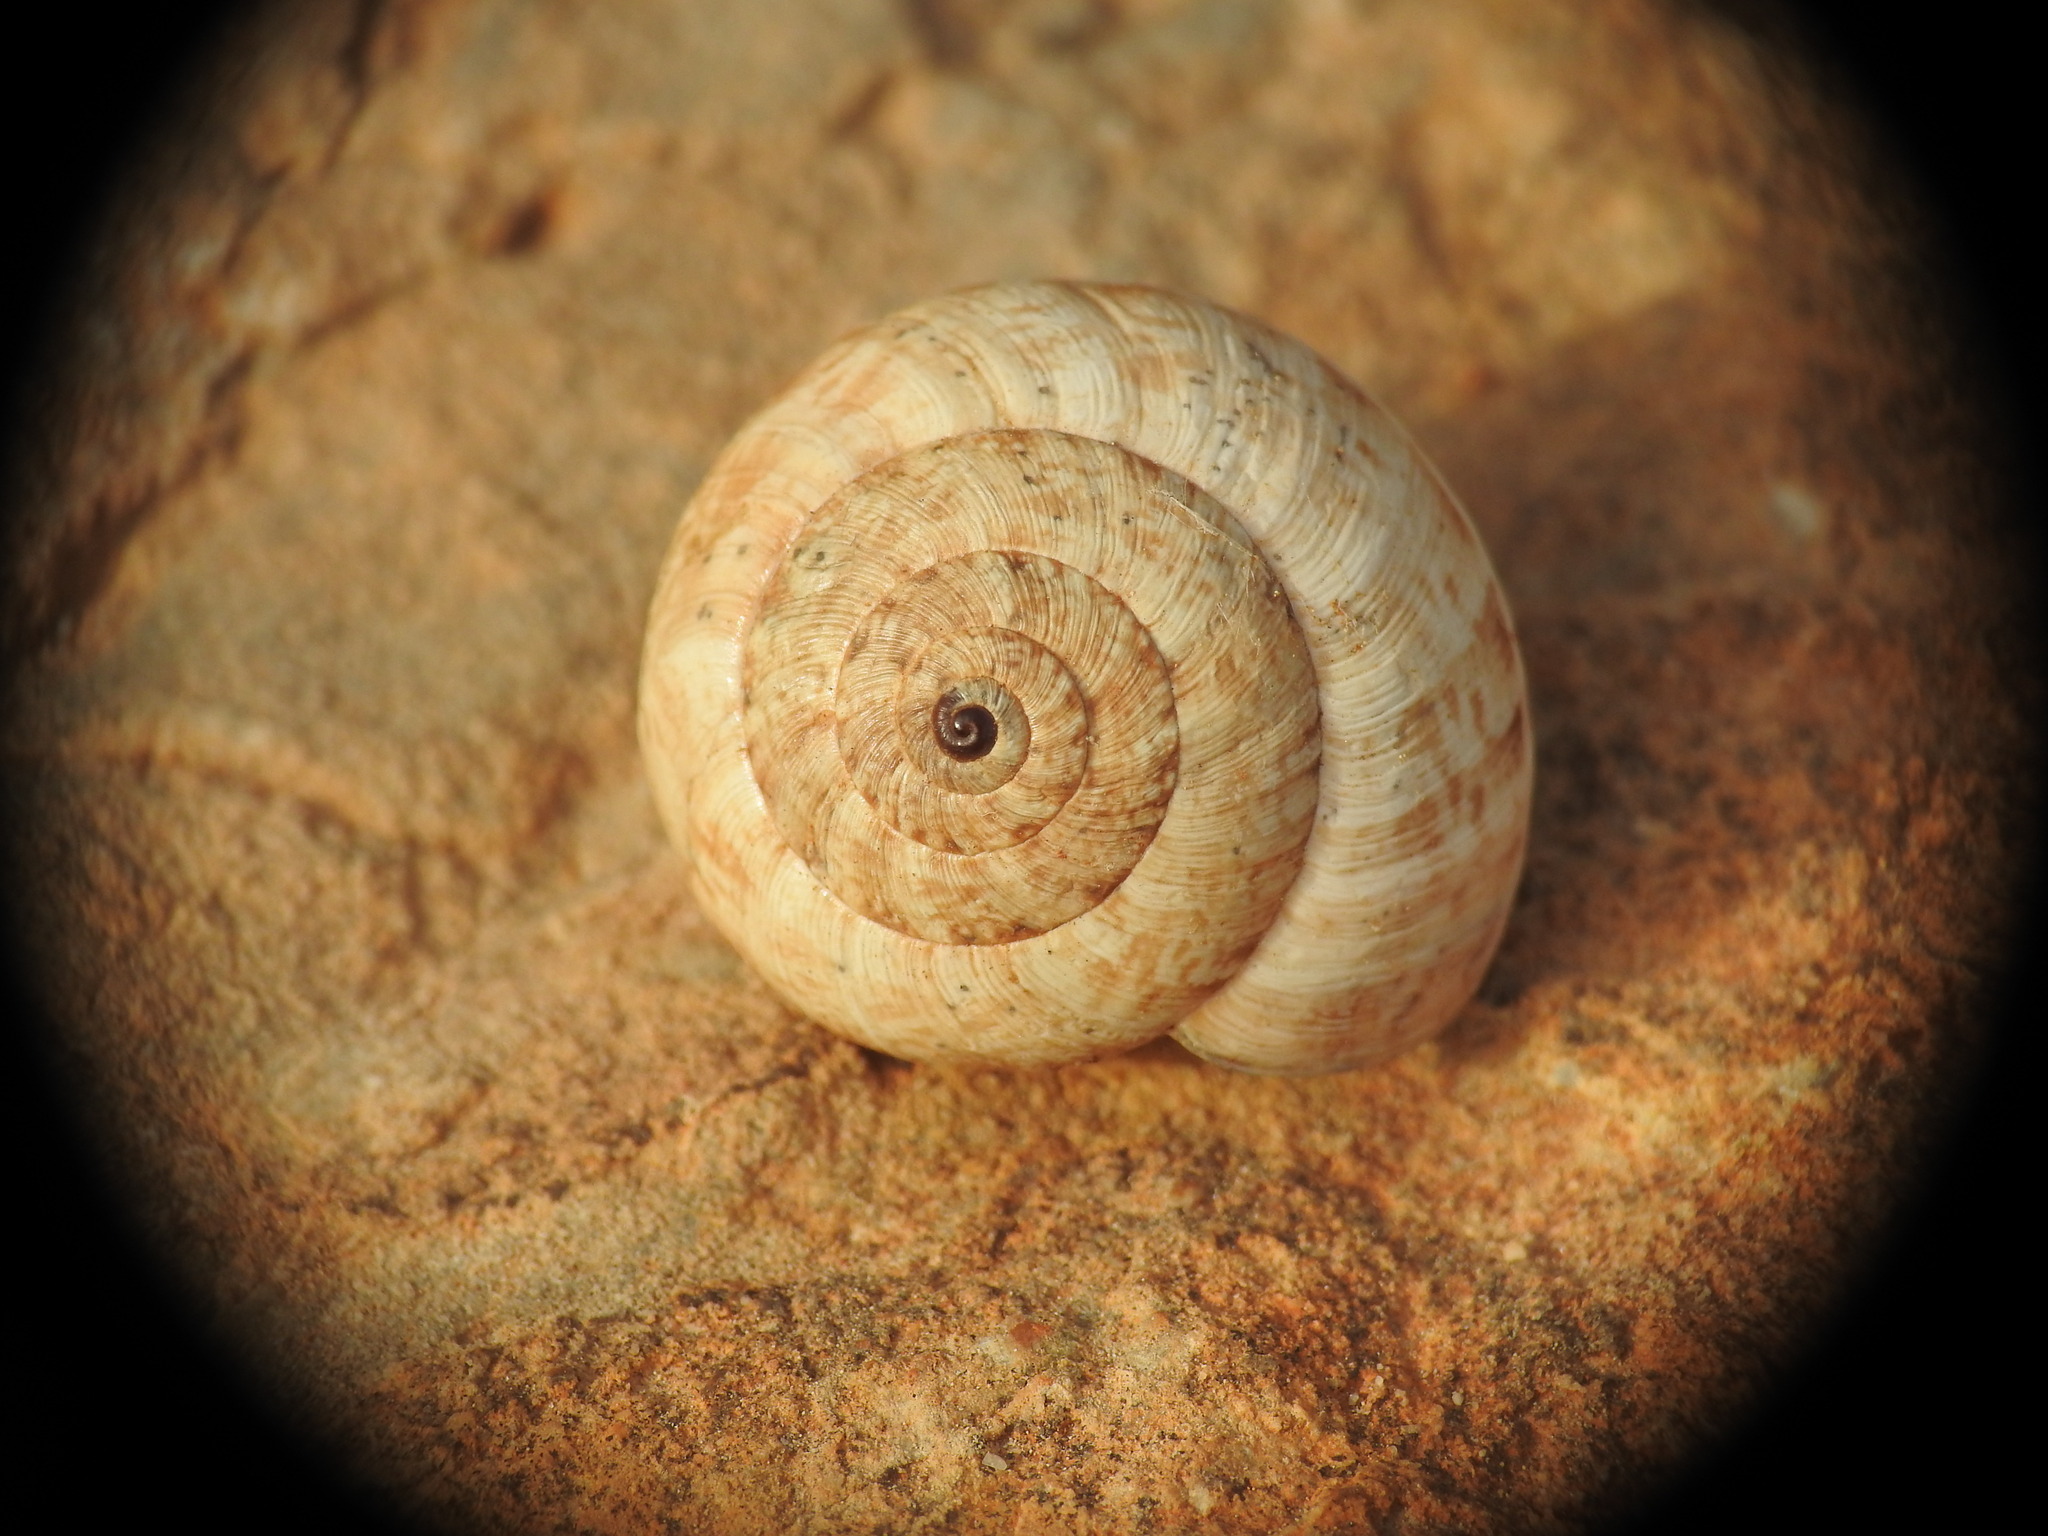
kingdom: Animalia
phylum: Mollusca
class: Gastropoda
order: Stylommatophora
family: Geomitridae
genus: Xerocrassa
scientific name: Xerocrassa cretica
